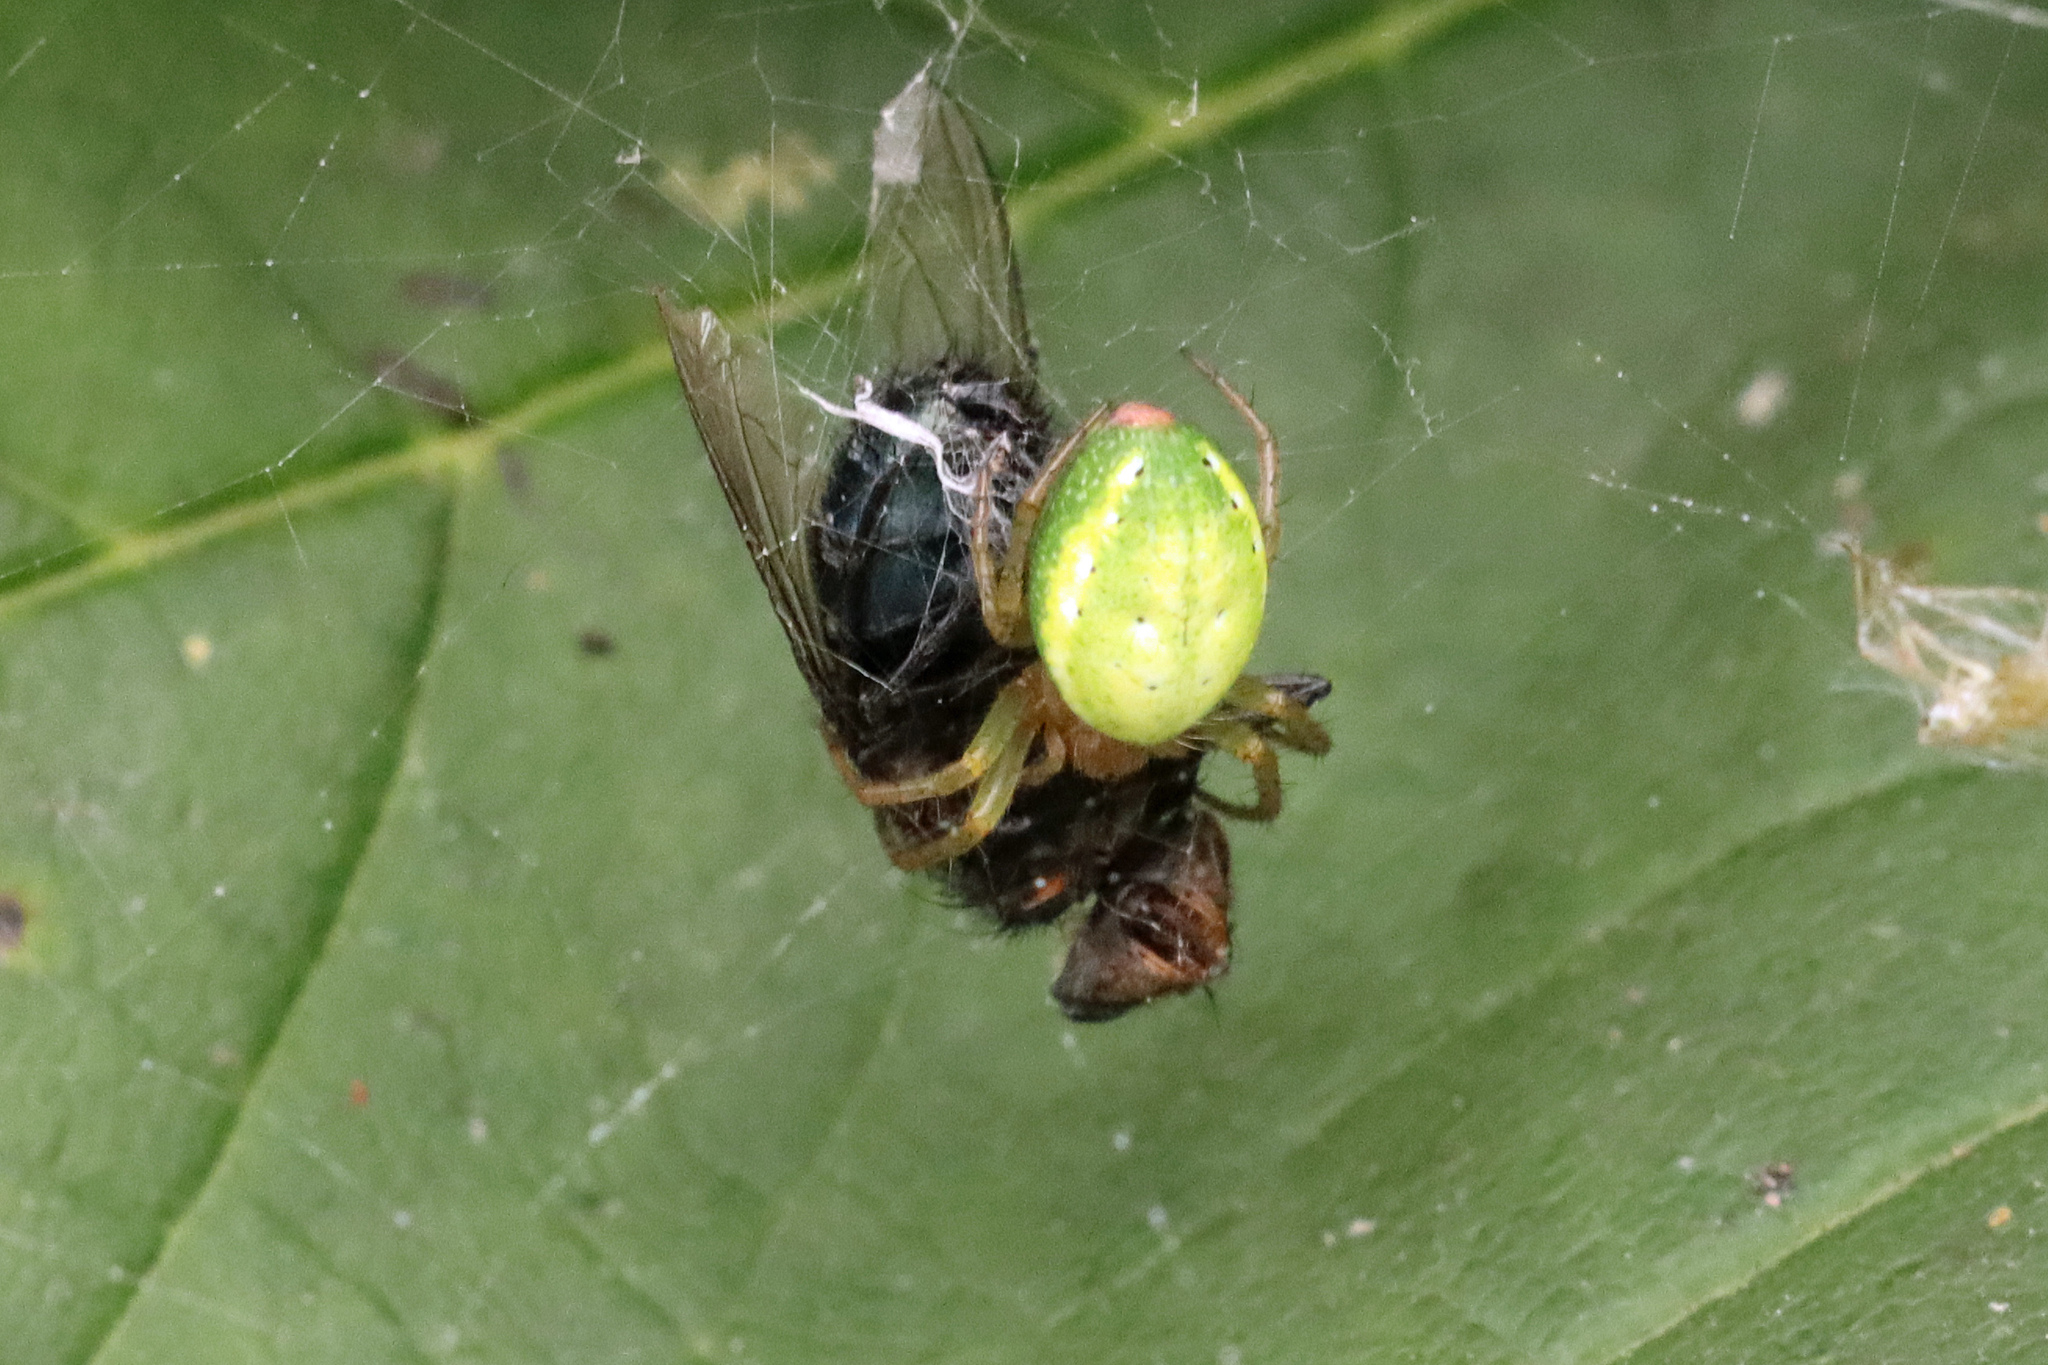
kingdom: Animalia
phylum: Arthropoda
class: Arachnida
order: Araneae
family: Araneidae
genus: Araniella
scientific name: Araniella
